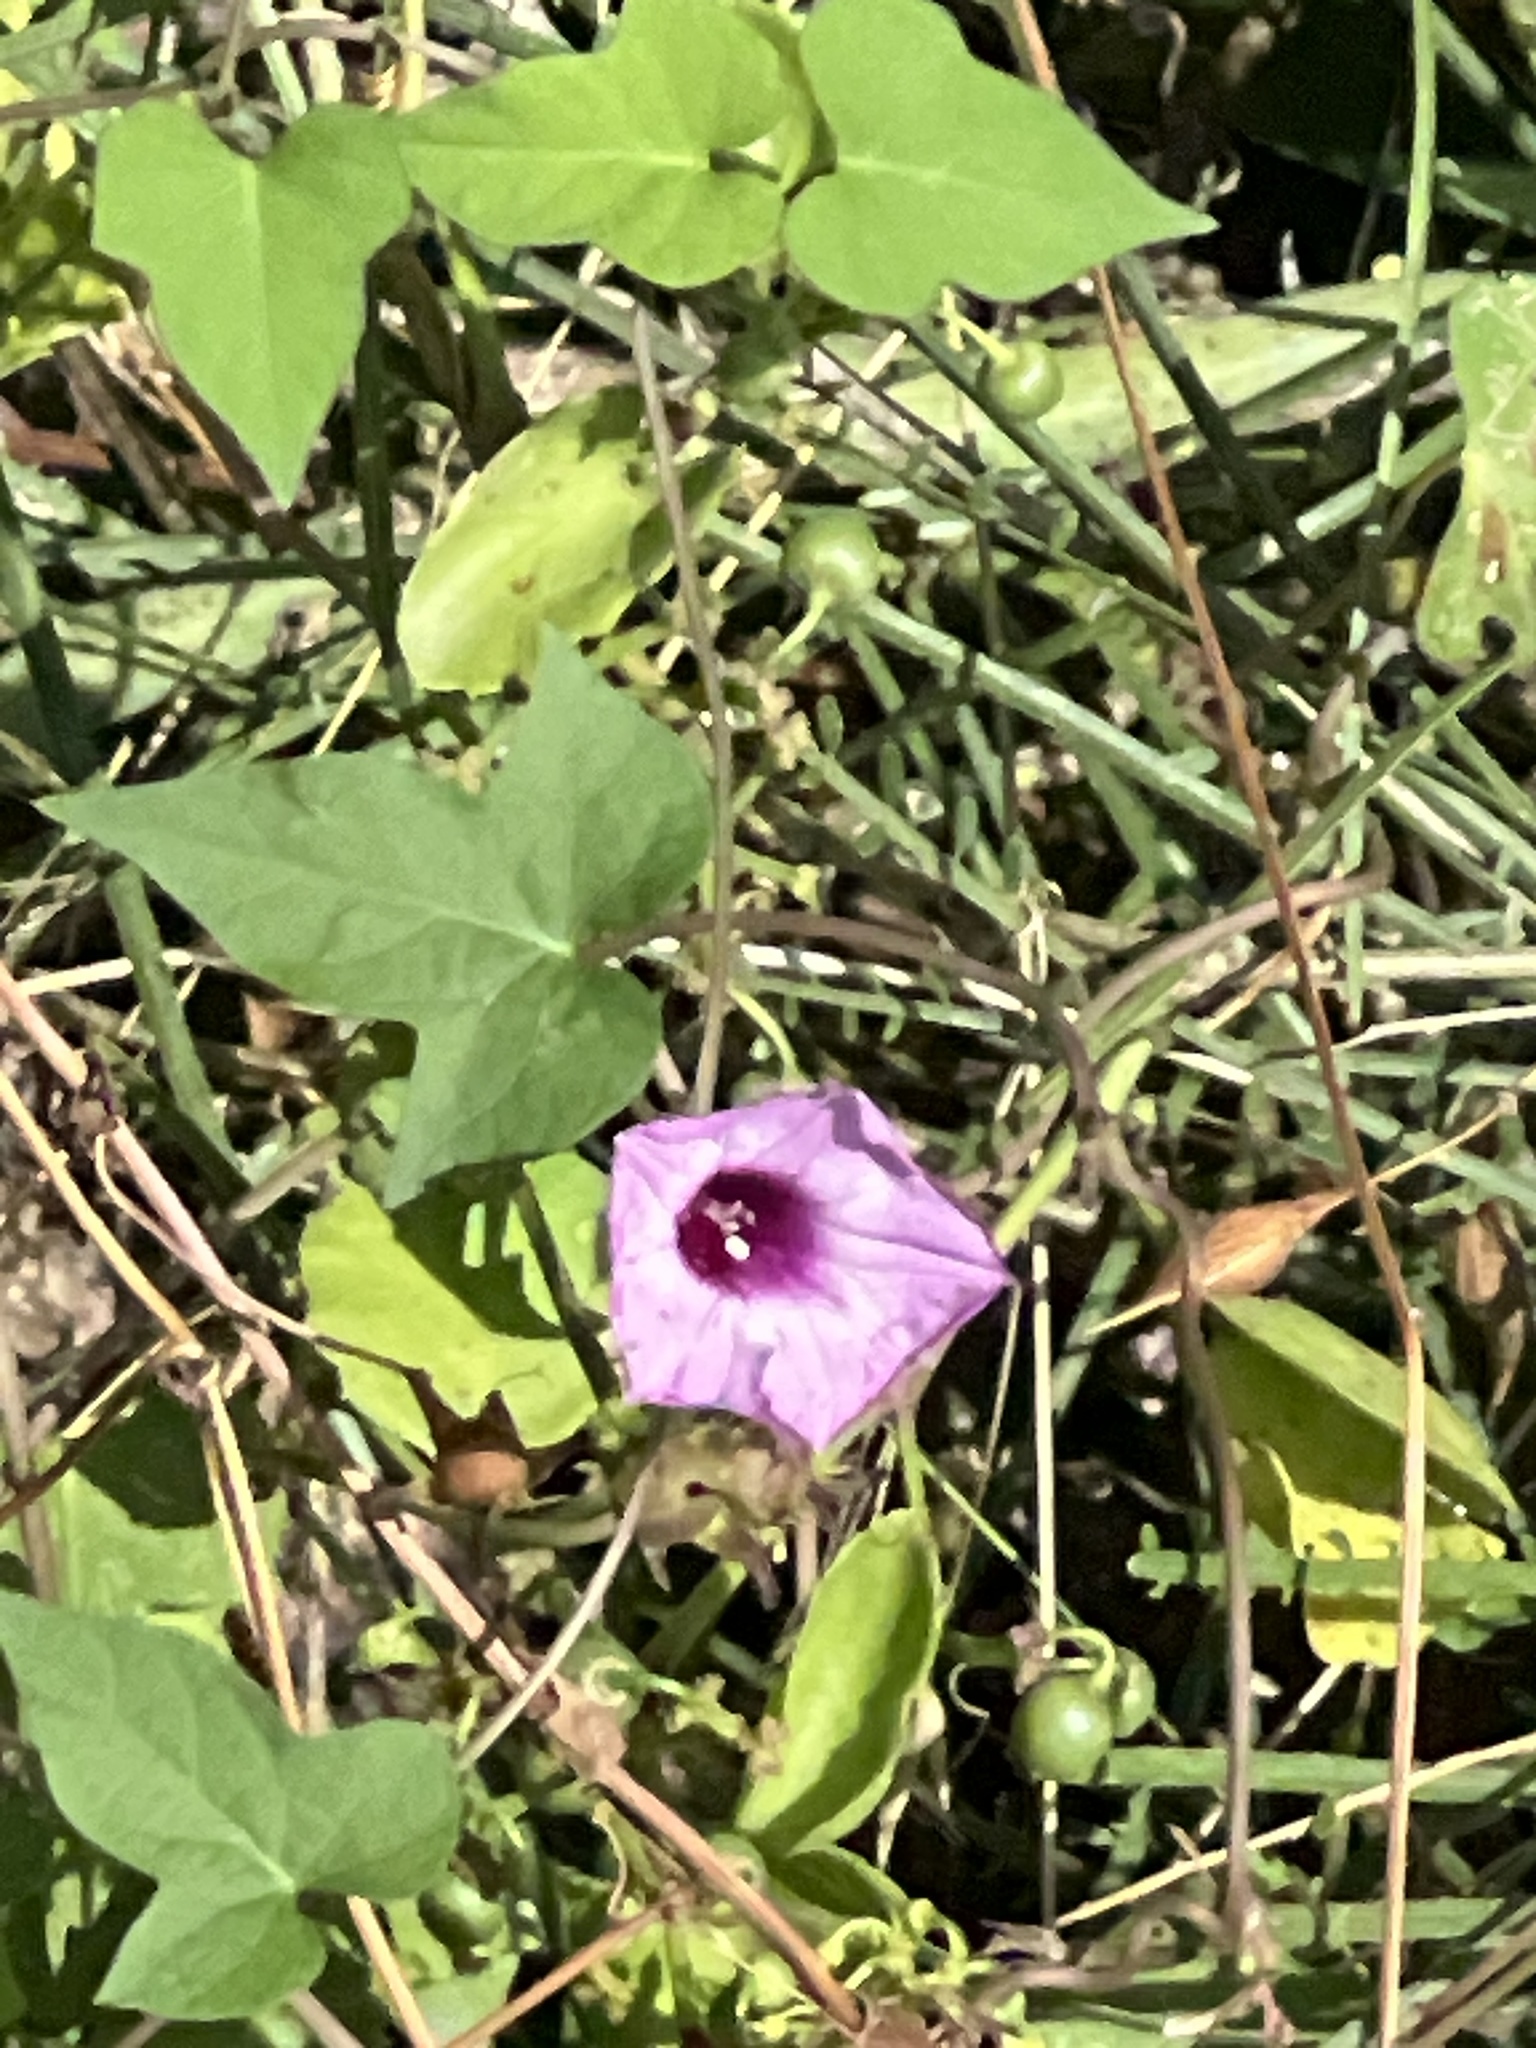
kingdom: Plantae
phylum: Tracheophyta
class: Magnoliopsida
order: Solanales
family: Convolvulaceae
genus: Ipomoea
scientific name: Ipomoea cordatotriloba
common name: Cotton morning glory
